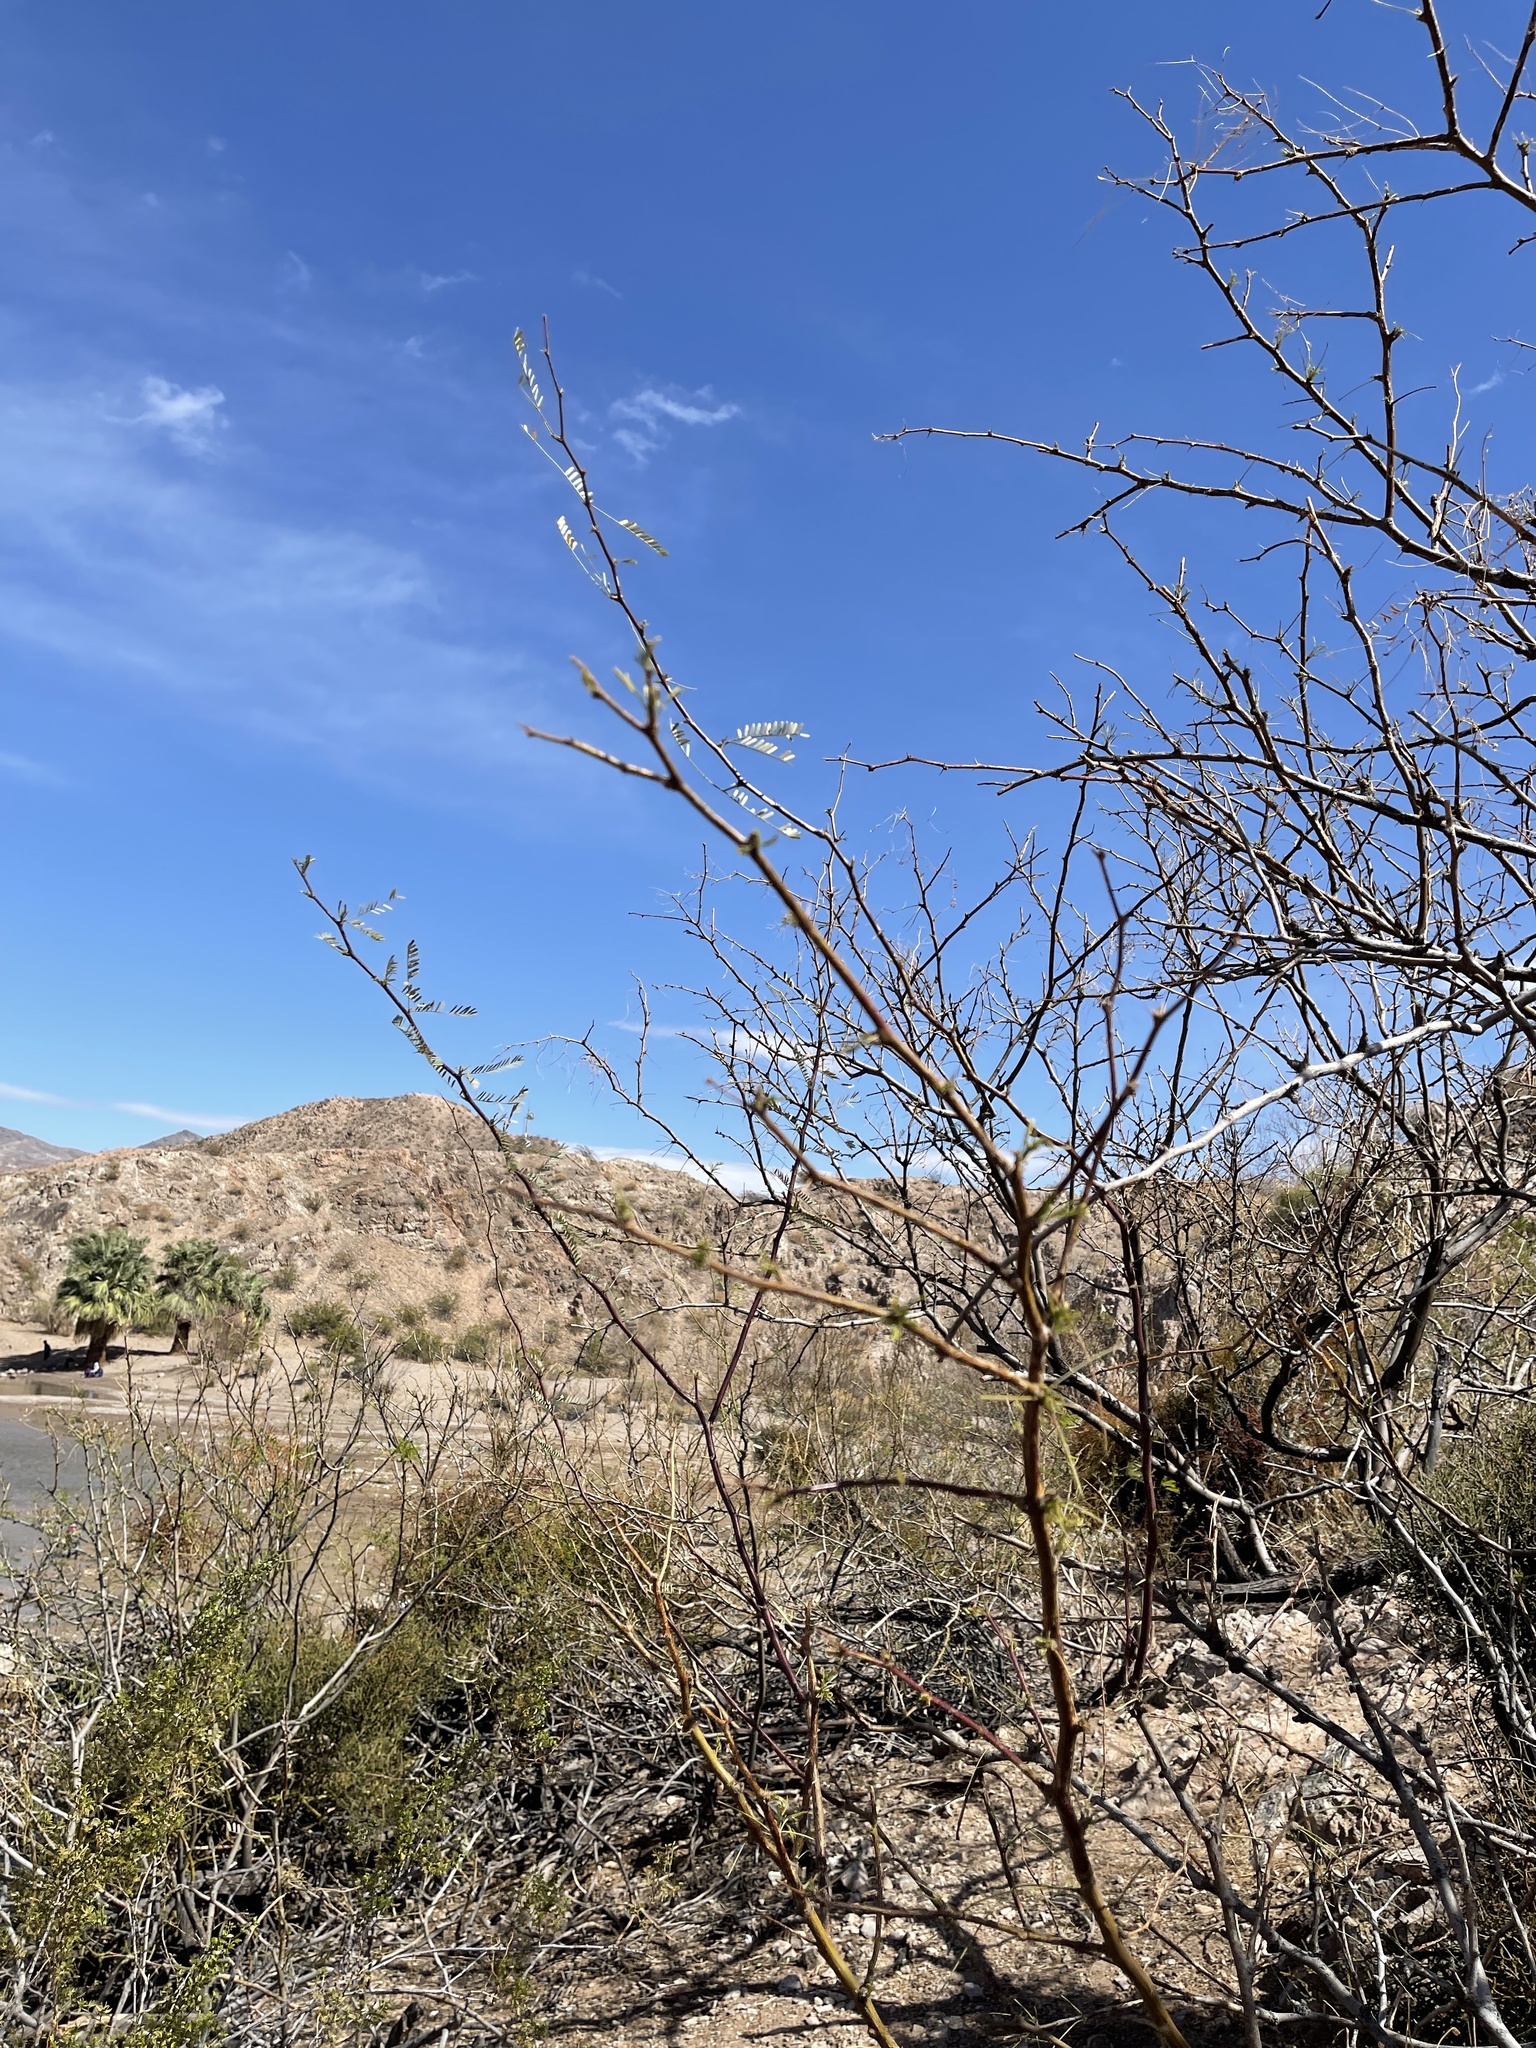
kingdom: Plantae
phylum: Tracheophyta
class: Magnoliopsida
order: Fabales
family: Fabaceae
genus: Prosopis
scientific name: Prosopis glandulosa
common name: Honey mesquite
